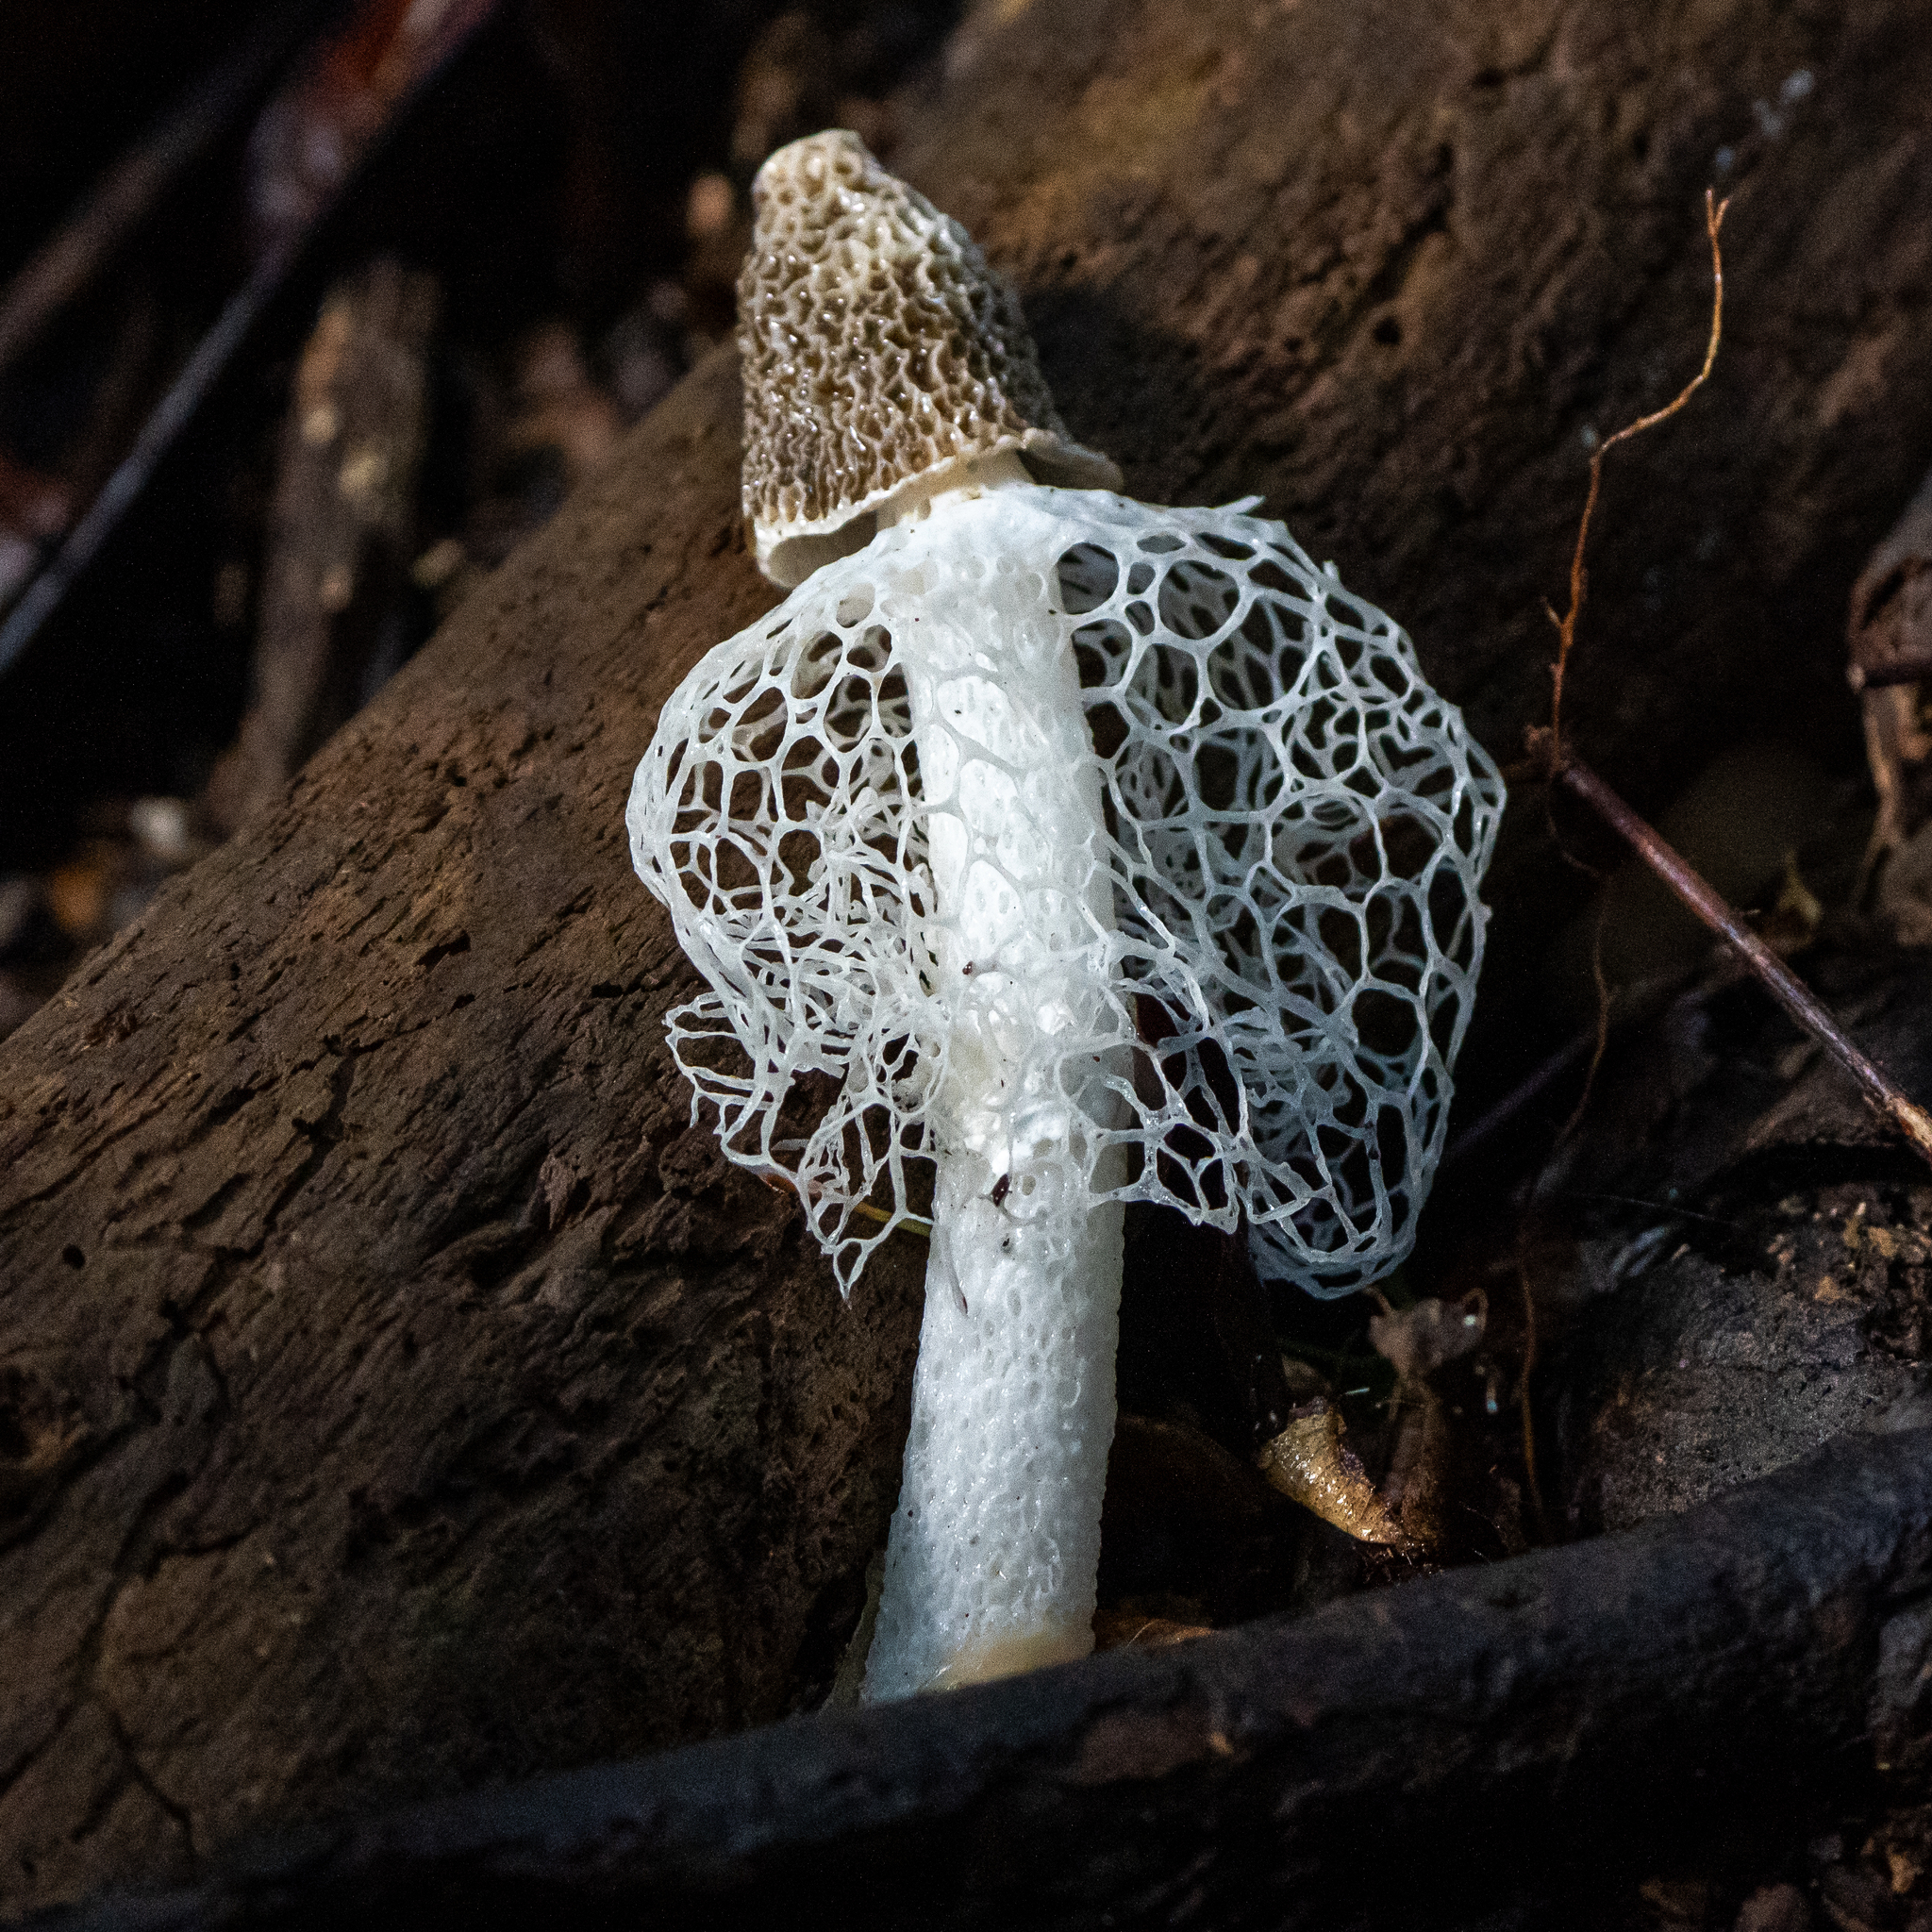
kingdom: Fungi
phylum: Basidiomycota
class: Agaricomycetes
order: Phallales
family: Phallaceae
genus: Phallus
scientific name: Phallus indusiatus
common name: Bridal veil stinkhorn
